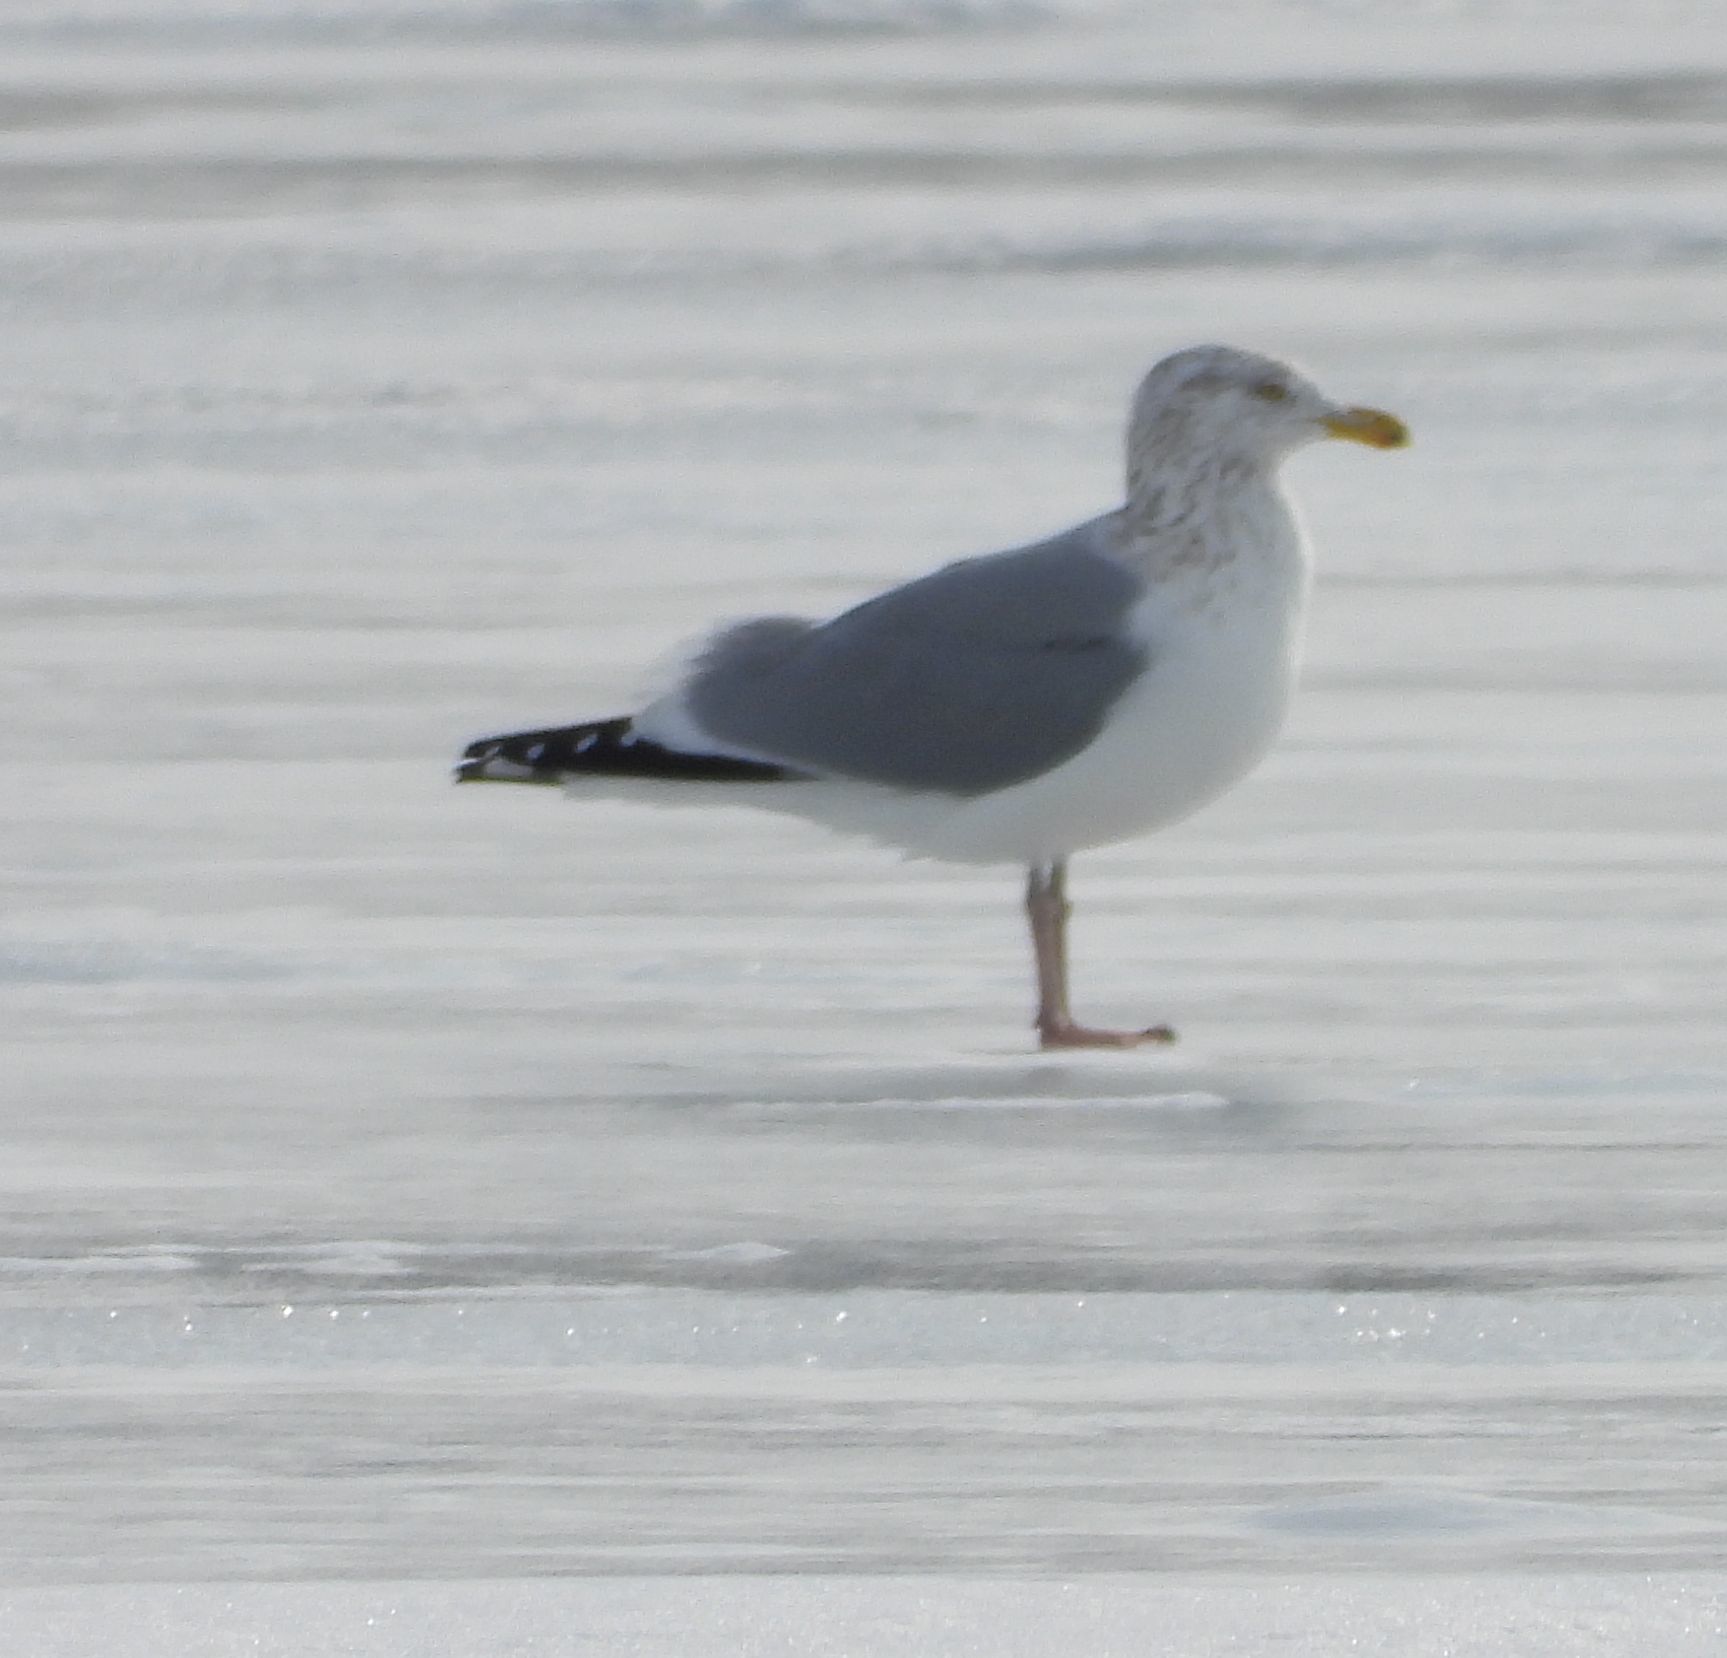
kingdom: Animalia
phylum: Chordata
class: Aves
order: Charadriiformes
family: Laridae
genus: Larus
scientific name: Larus argentatus
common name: Herring gull
